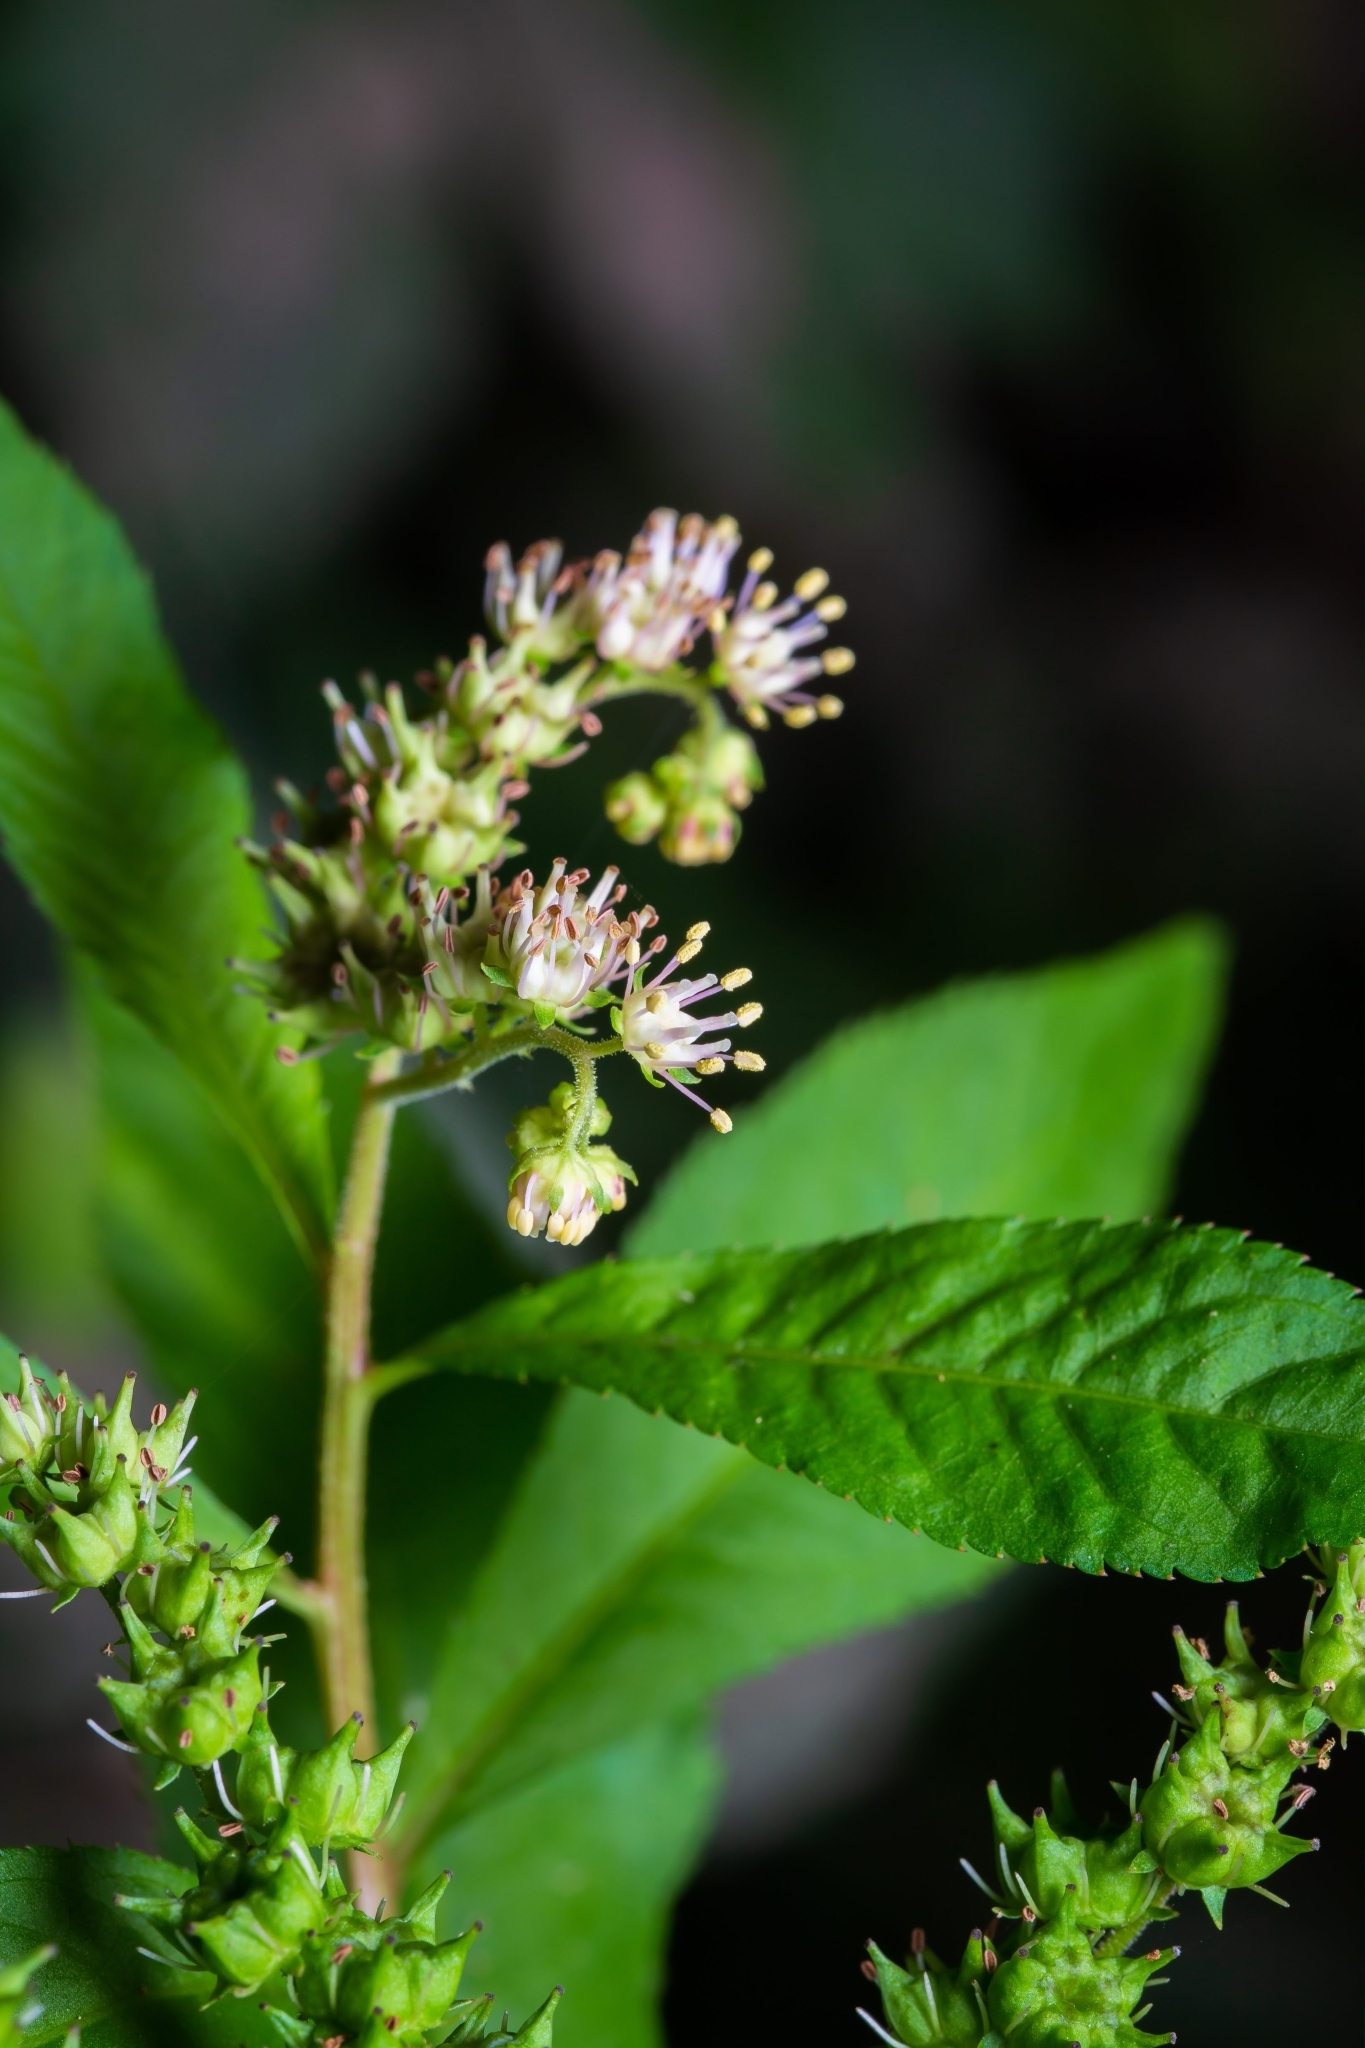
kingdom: Plantae
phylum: Tracheophyta
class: Magnoliopsida
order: Saxifragales
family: Penthoraceae
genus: Penthorum
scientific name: Penthorum sedoides
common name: Ditch stonecrop
